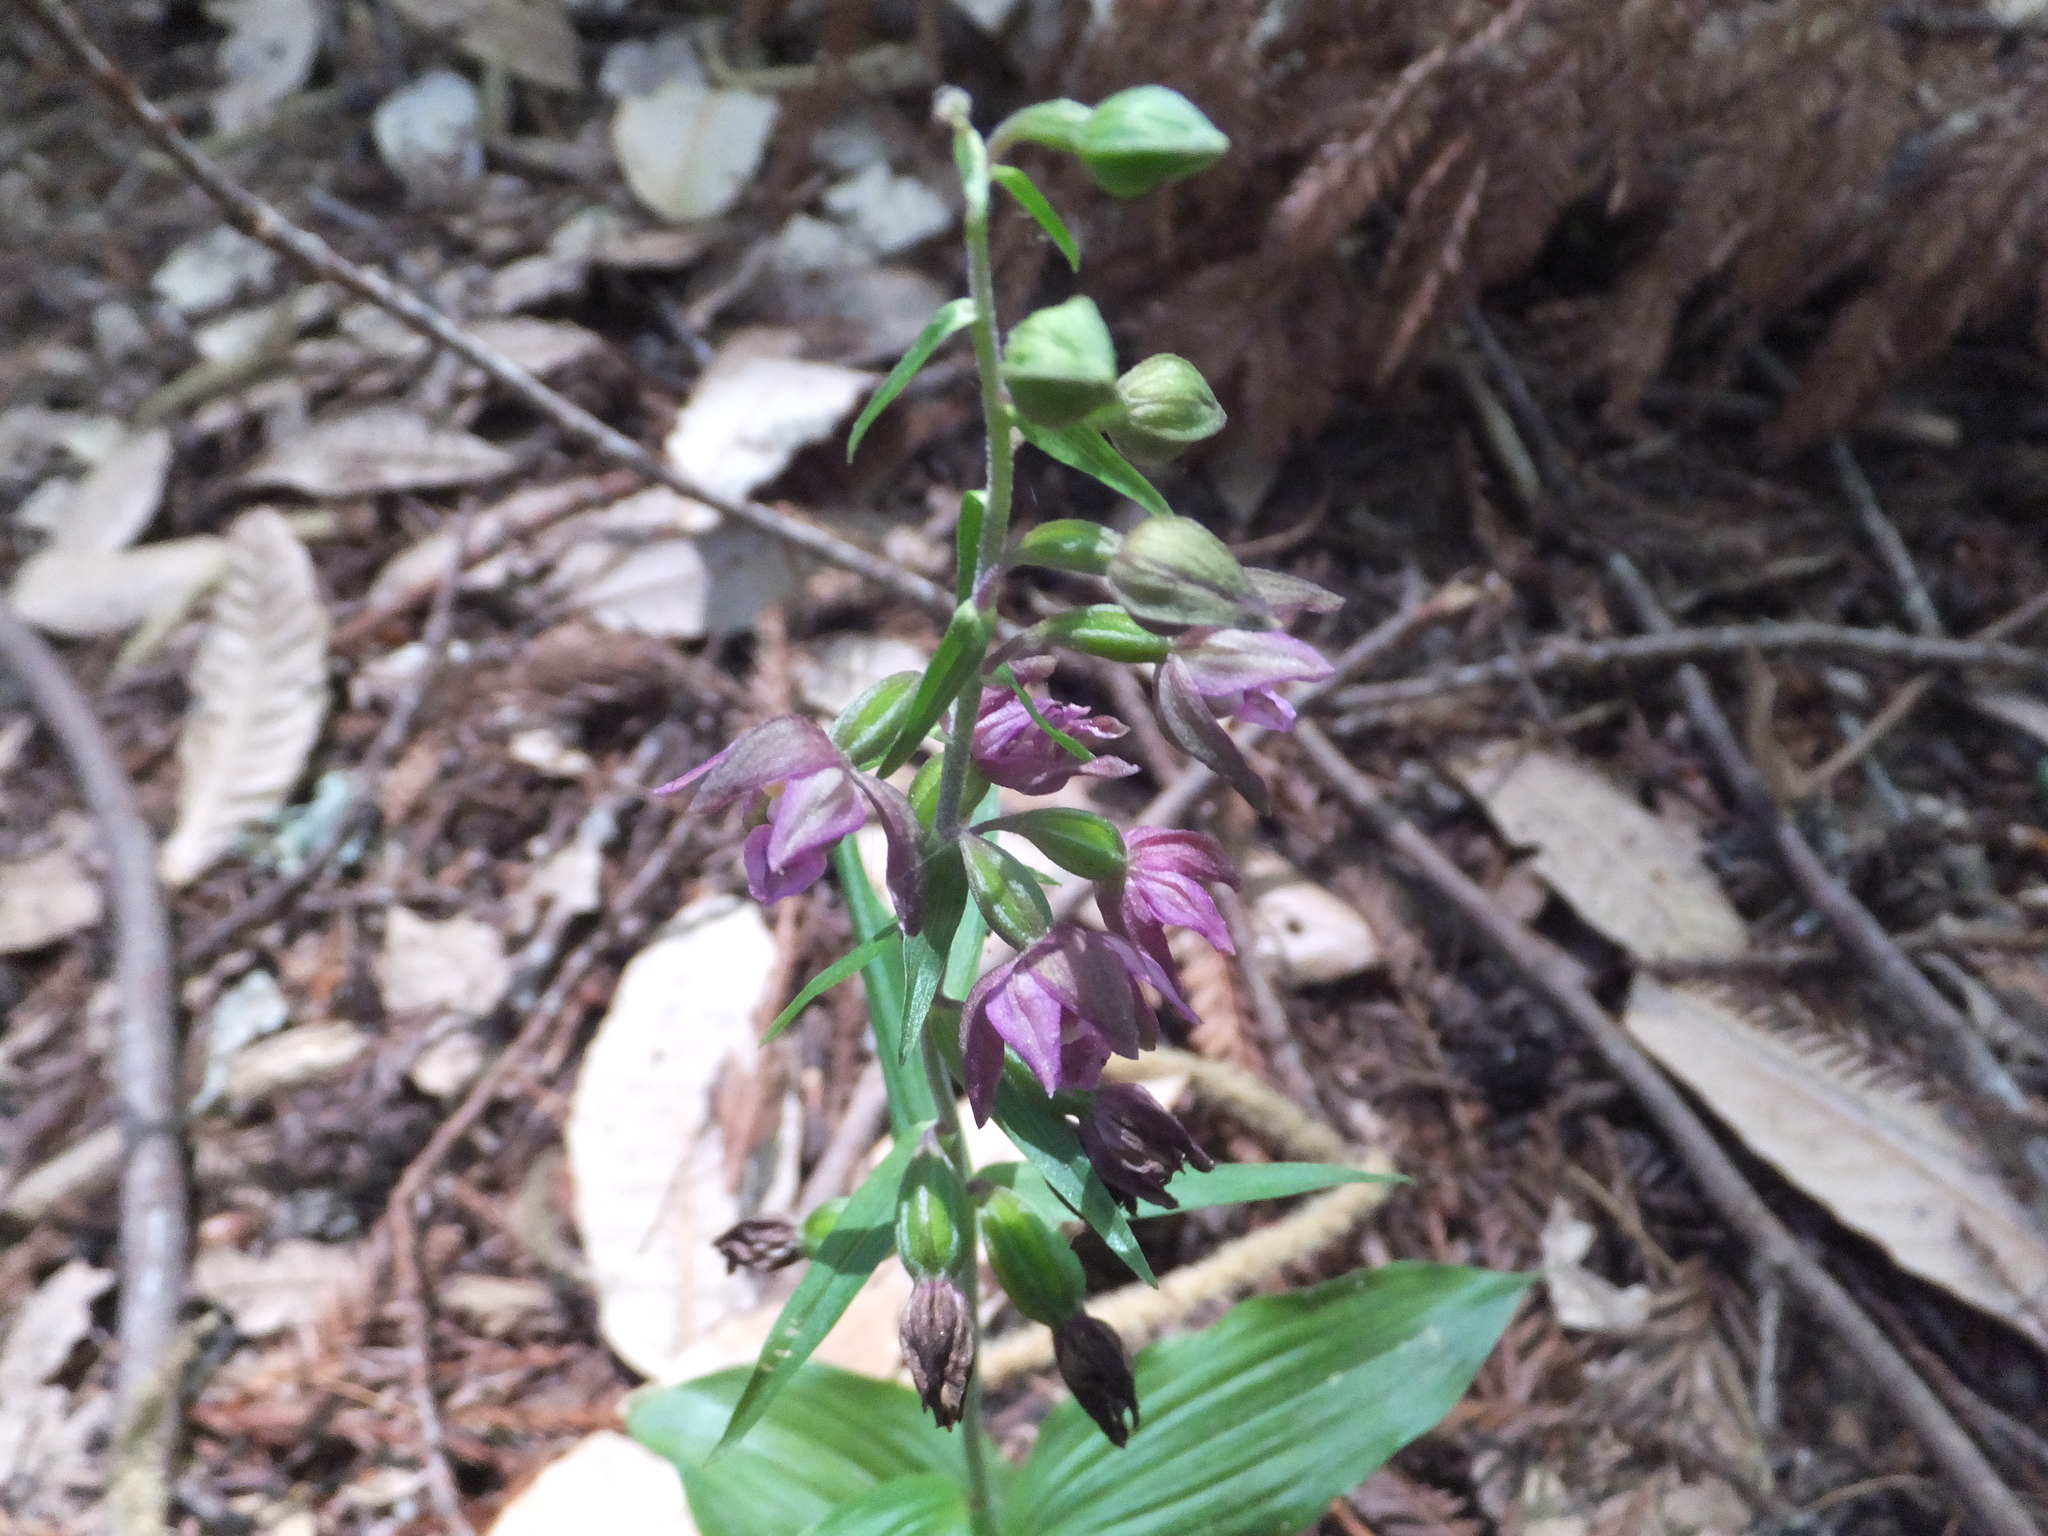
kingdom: Plantae
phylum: Tracheophyta
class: Liliopsida
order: Asparagales
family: Orchidaceae
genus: Epipactis
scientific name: Epipactis helleborine
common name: Broad-leaved helleborine
